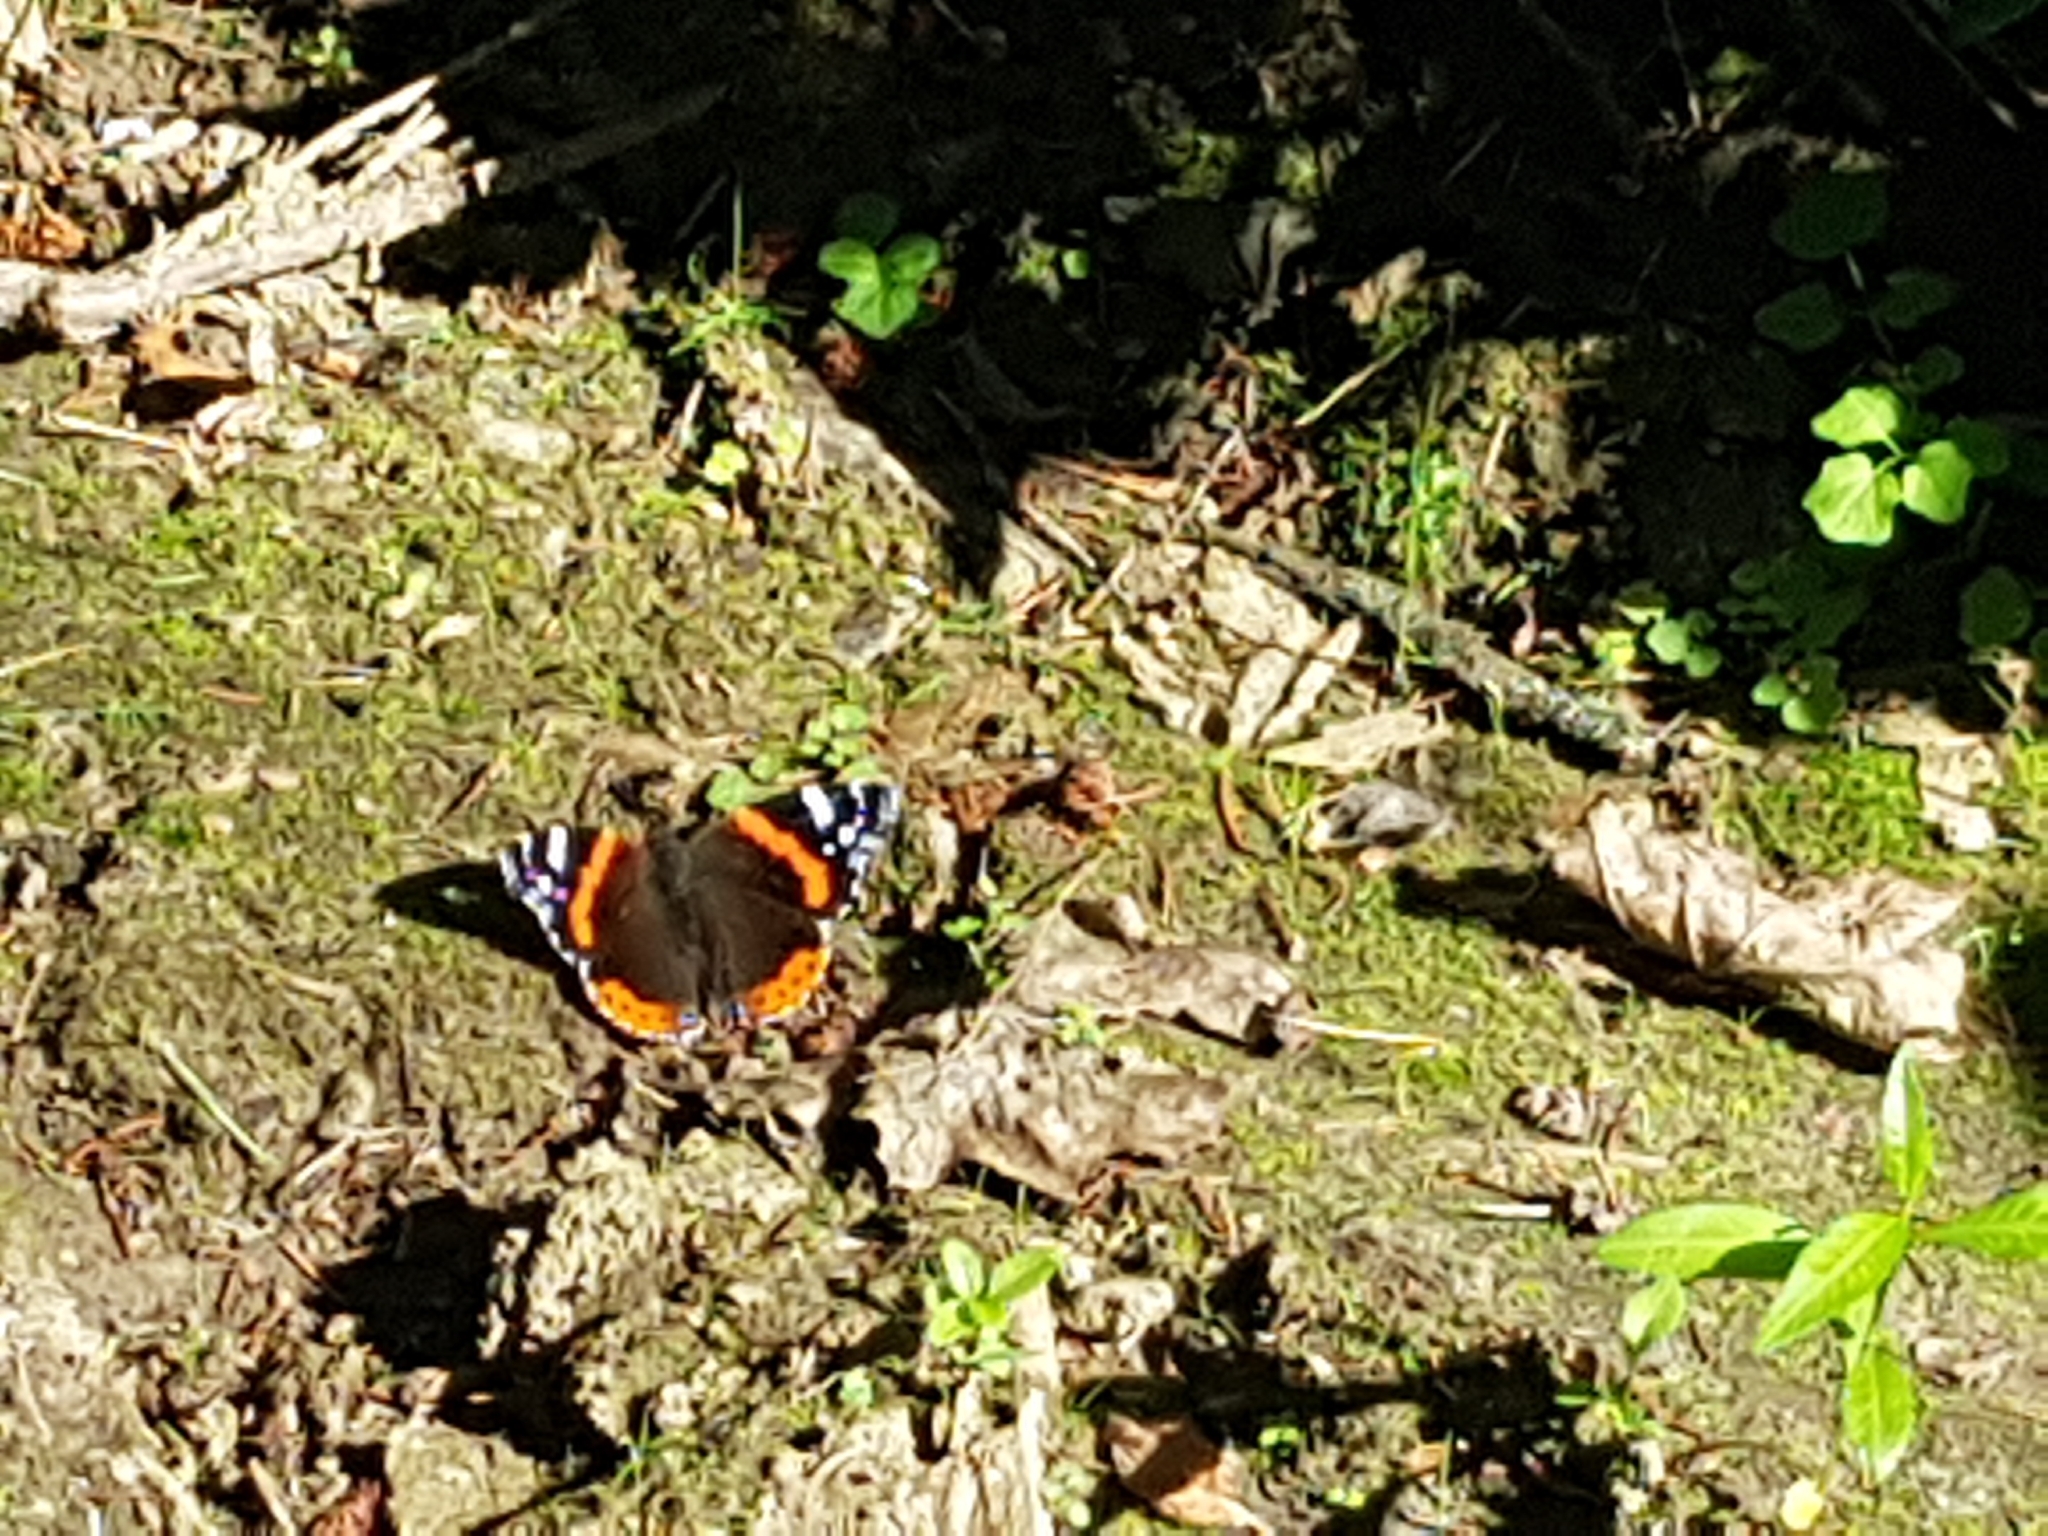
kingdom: Animalia
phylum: Arthropoda
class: Insecta
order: Lepidoptera
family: Nymphalidae
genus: Vanessa
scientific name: Vanessa atalanta
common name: Red admiral
